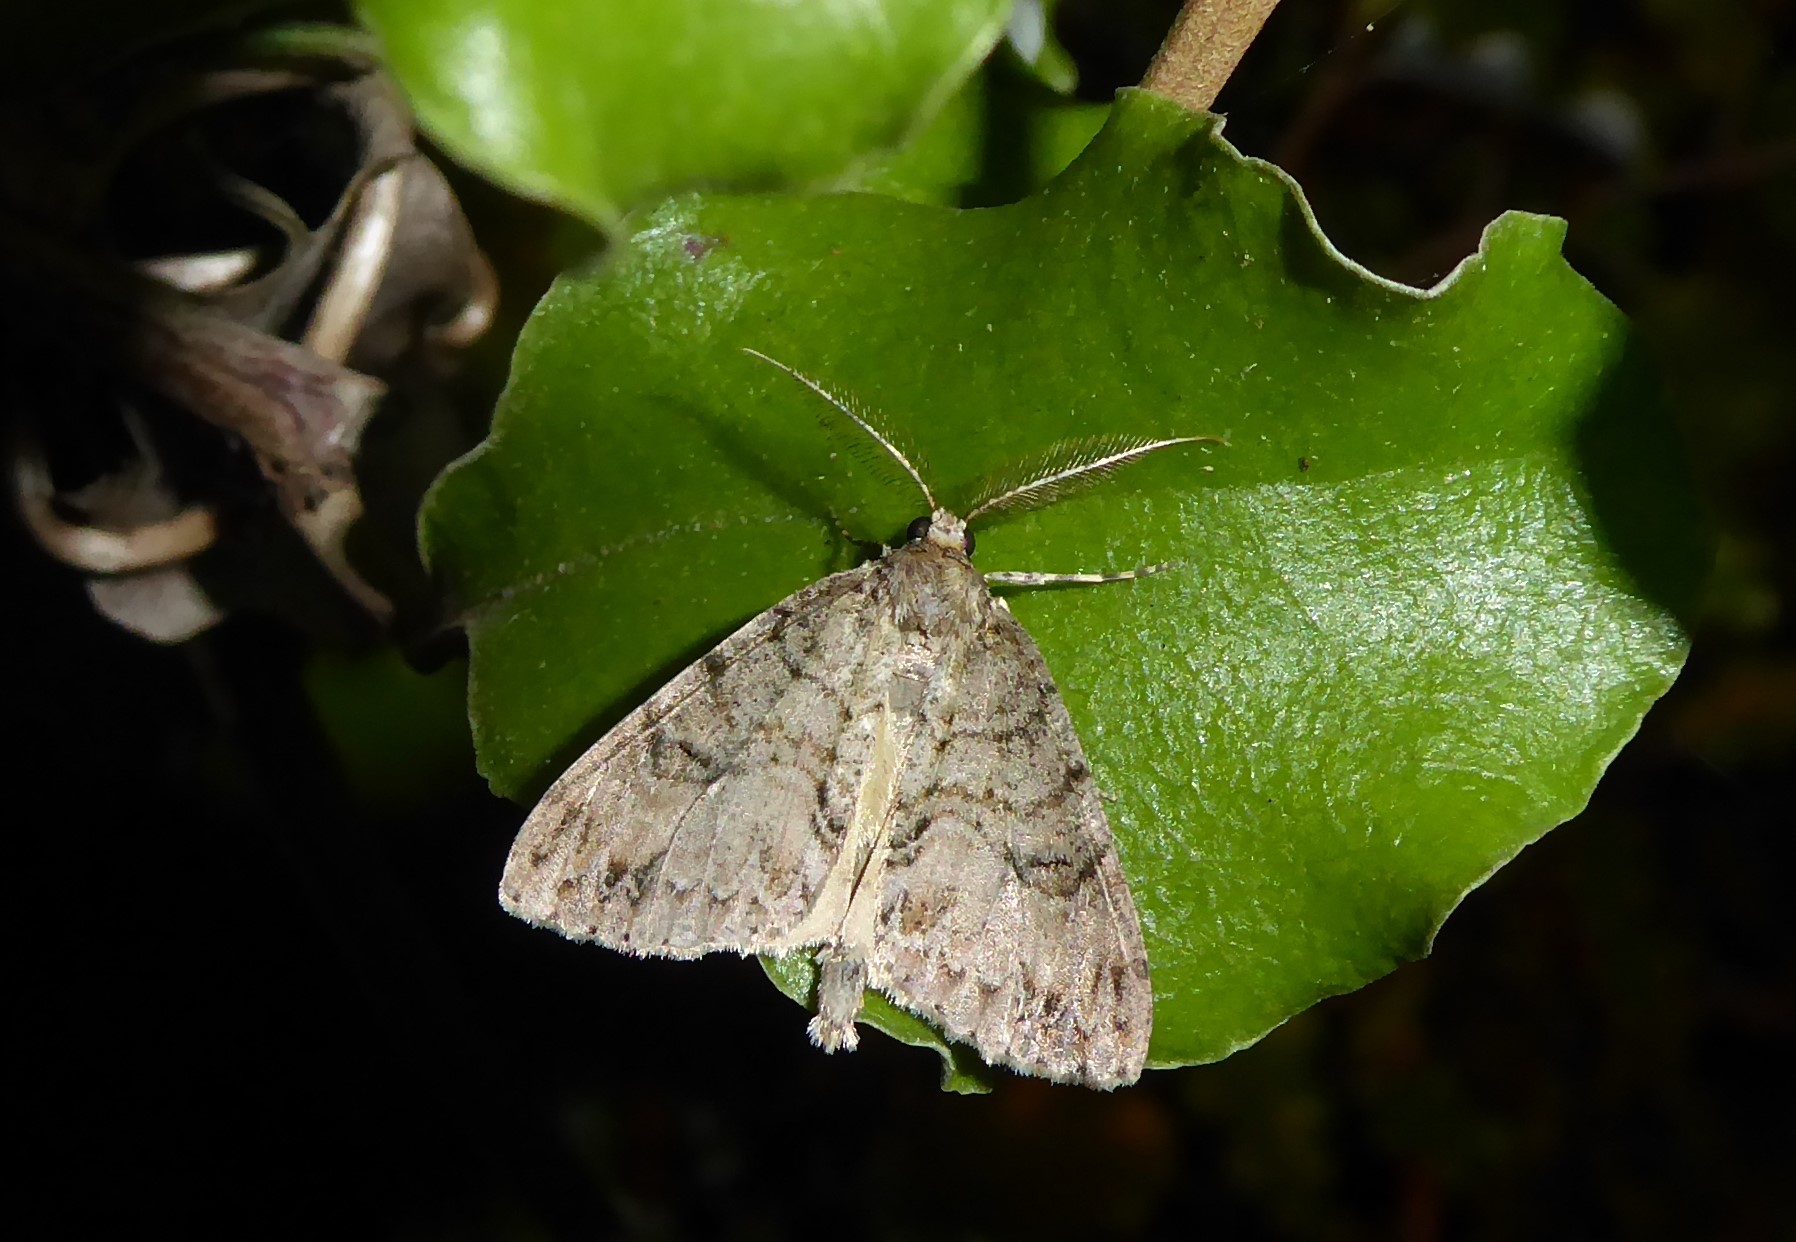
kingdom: Animalia
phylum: Arthropoda
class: Insecta
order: Lepidoptera
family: Geometridae
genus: Pseudocoremia
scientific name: Pseudocoremia suavis
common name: Common forest looper
